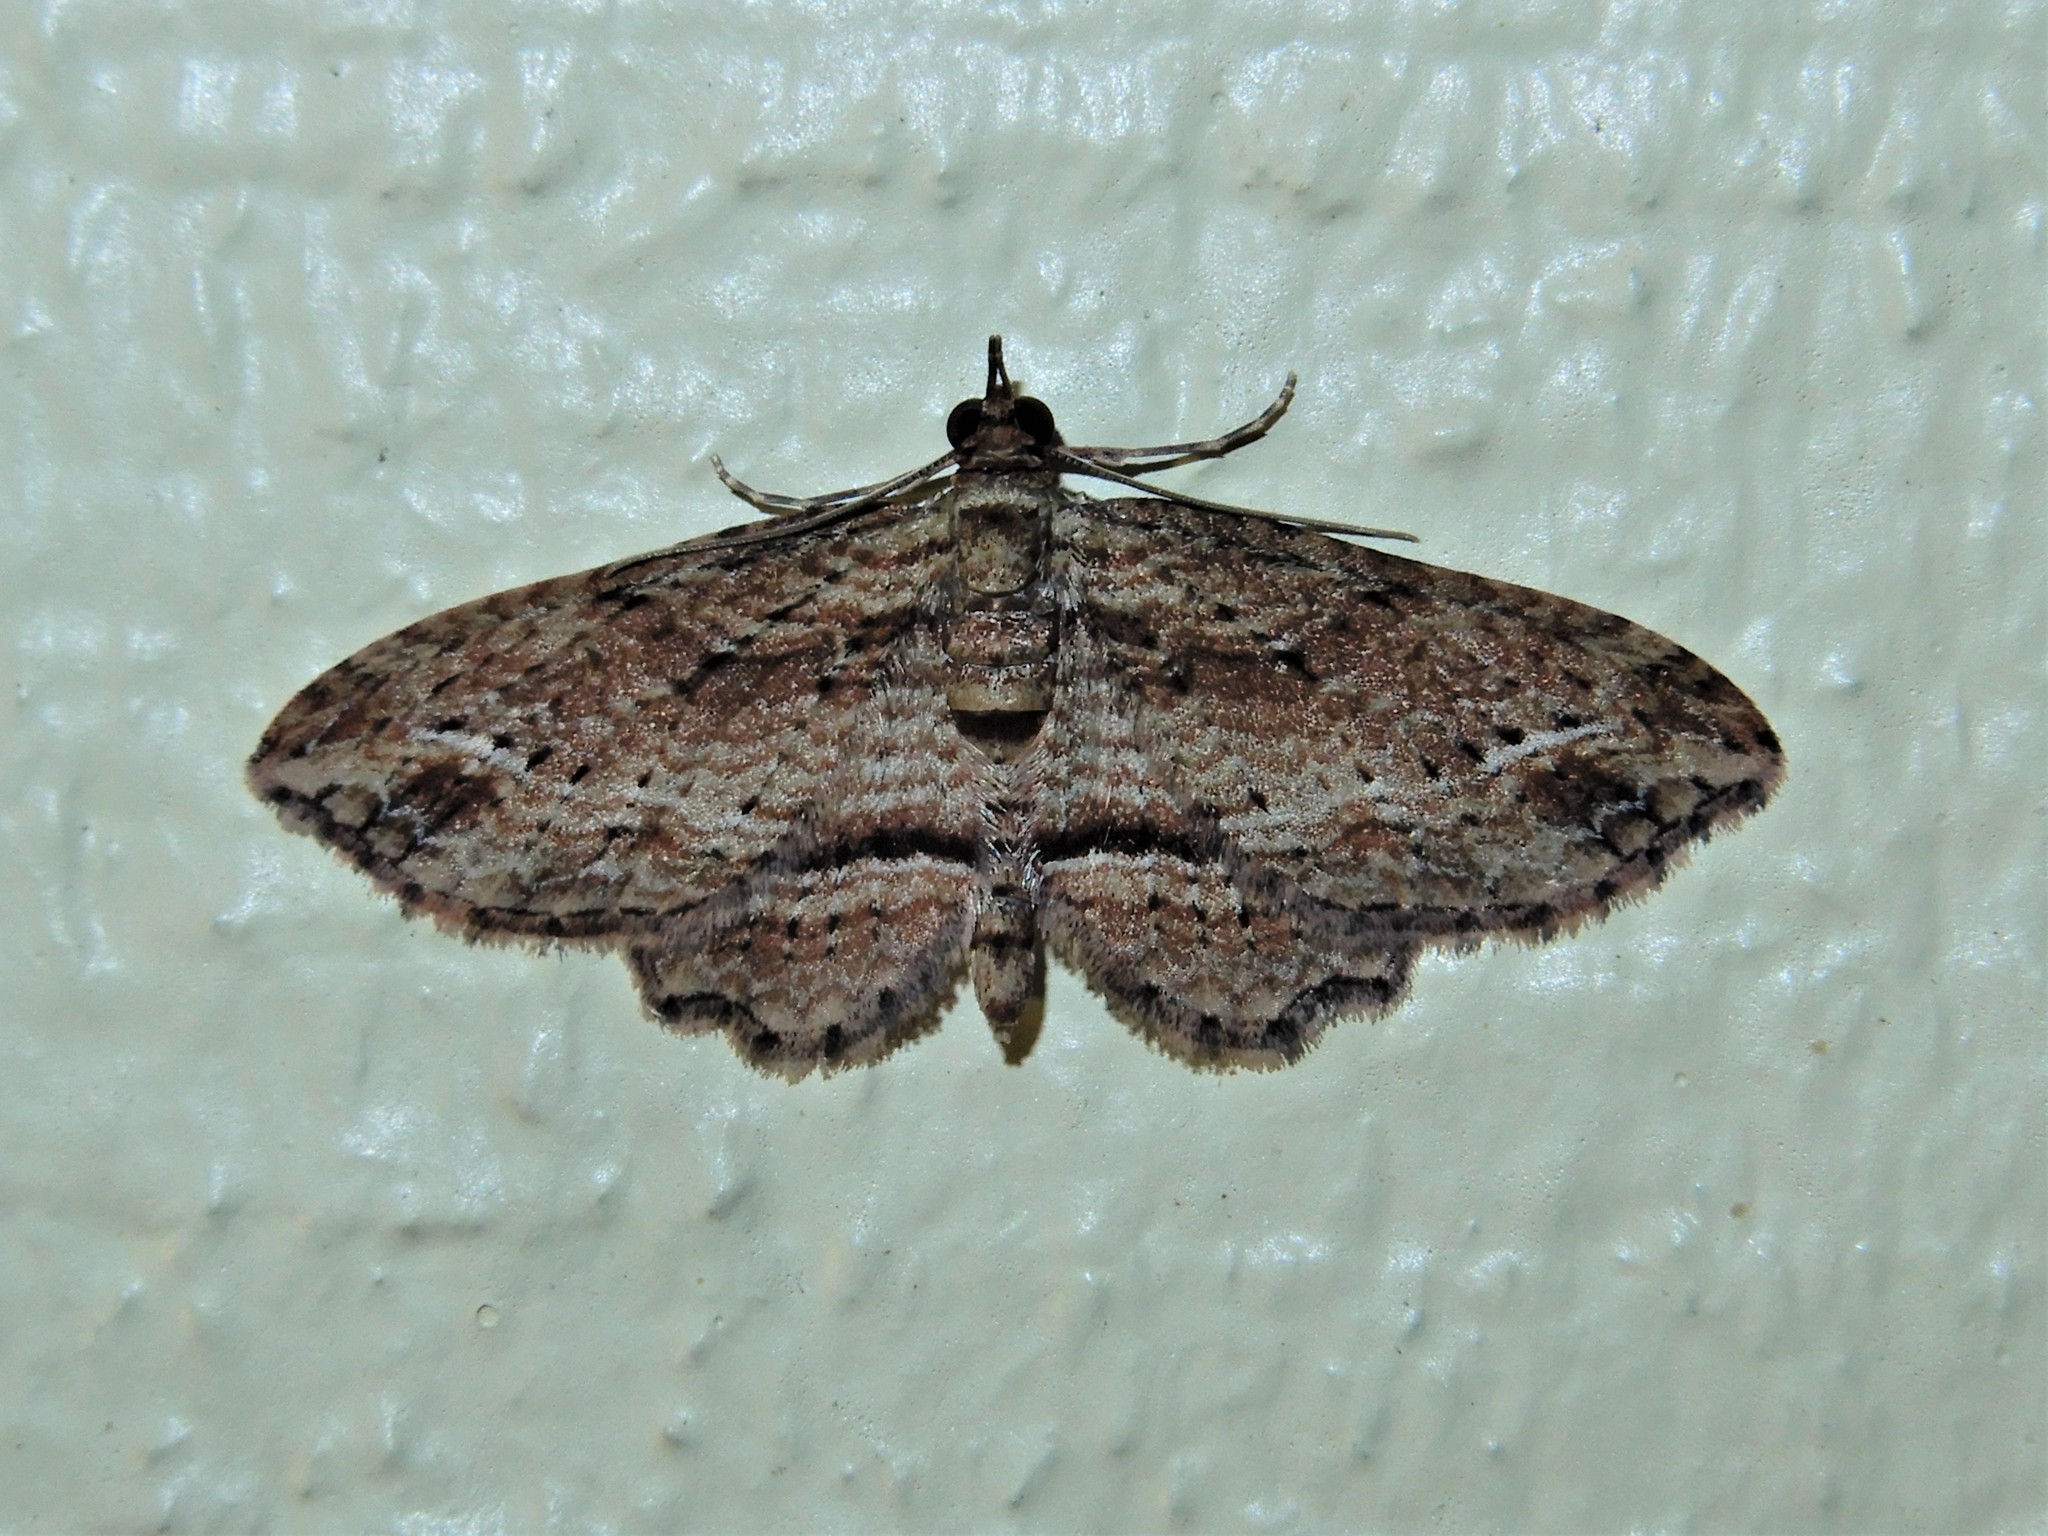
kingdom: Animalia
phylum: Arthropoda
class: Insecta
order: Lepidoptera
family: Geometridae
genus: Chloroclystis
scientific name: Chloroclystis filata
